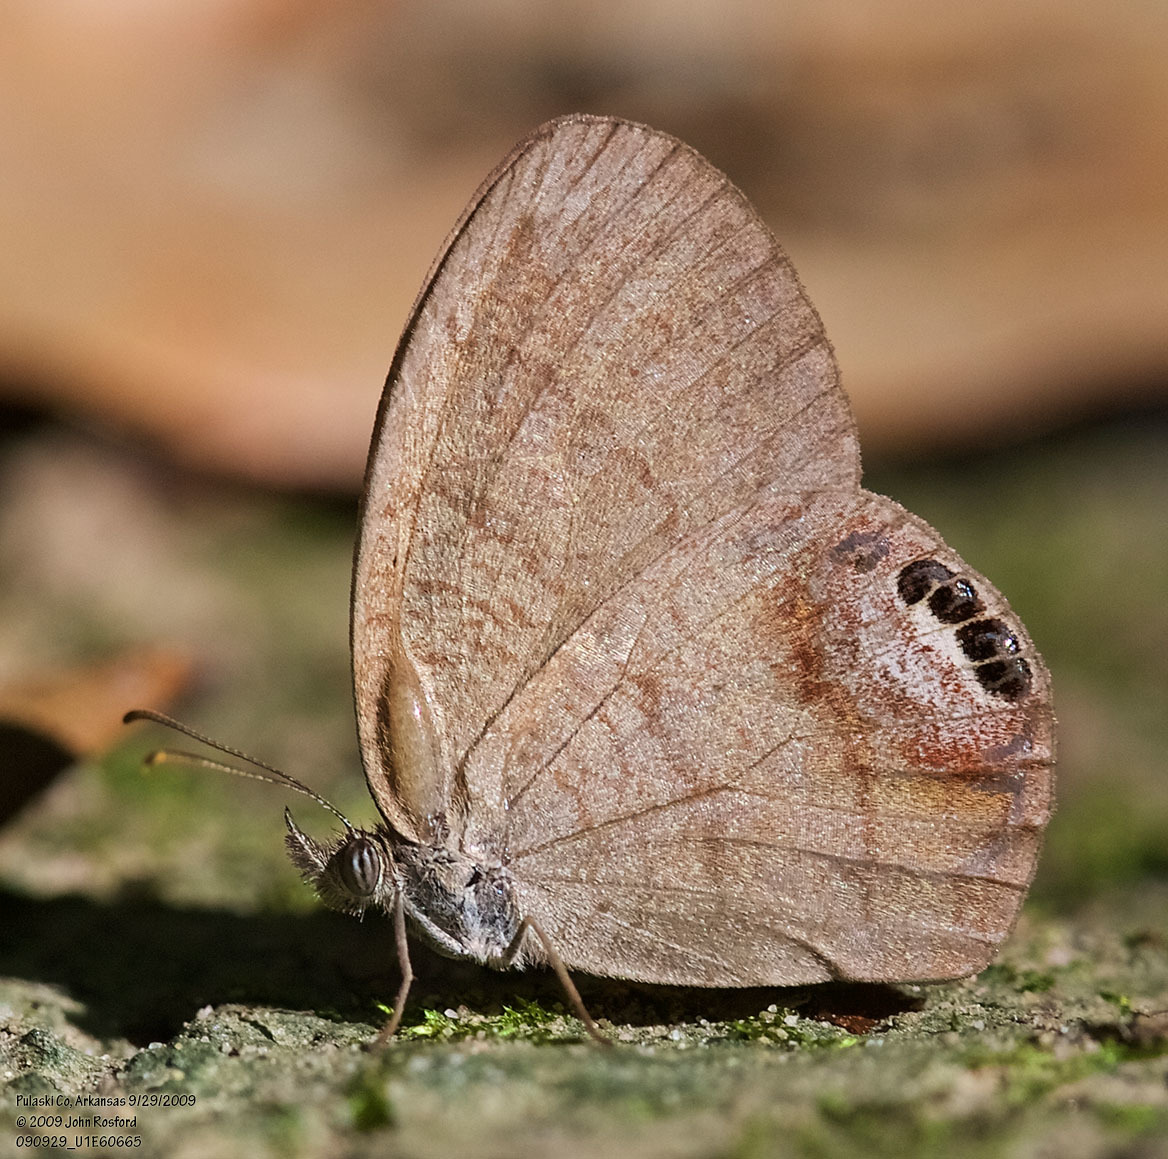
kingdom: Animalia
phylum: Arthropoda
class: Insecta
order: Lepidoptera
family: Nymphalidae
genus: Euptychia
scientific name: Euptychia cornelius
